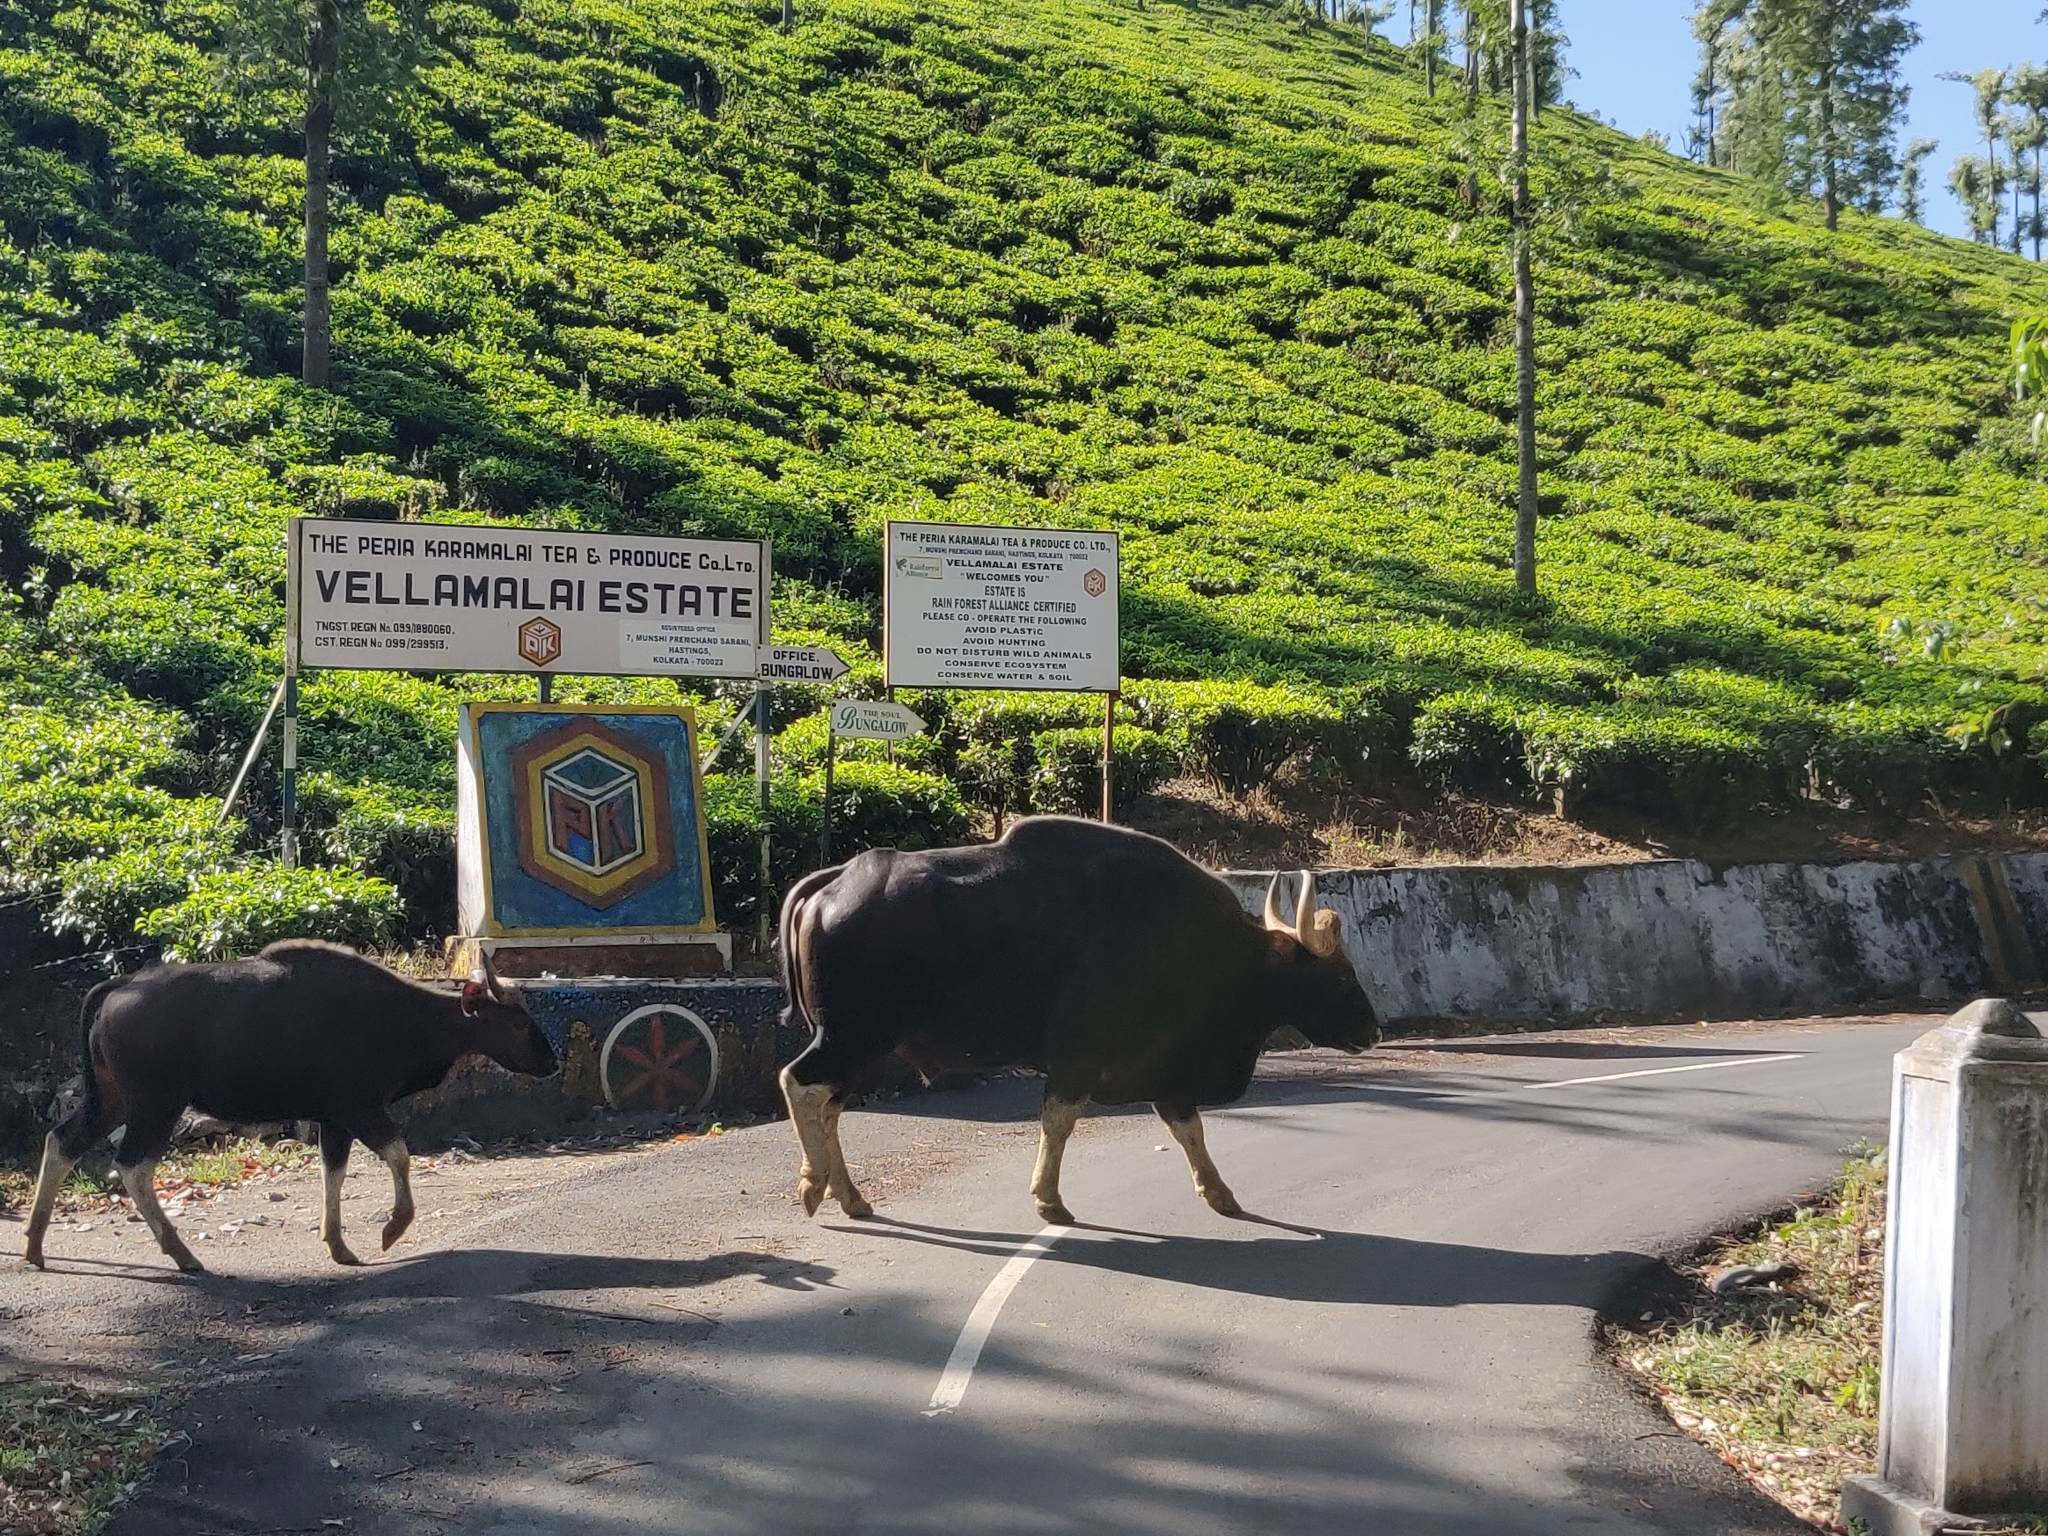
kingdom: Animalia
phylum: Chordata
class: Mammalia
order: Artiodactyla
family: Bovidae
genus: Bos
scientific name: Bos frontalis
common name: Gaur
